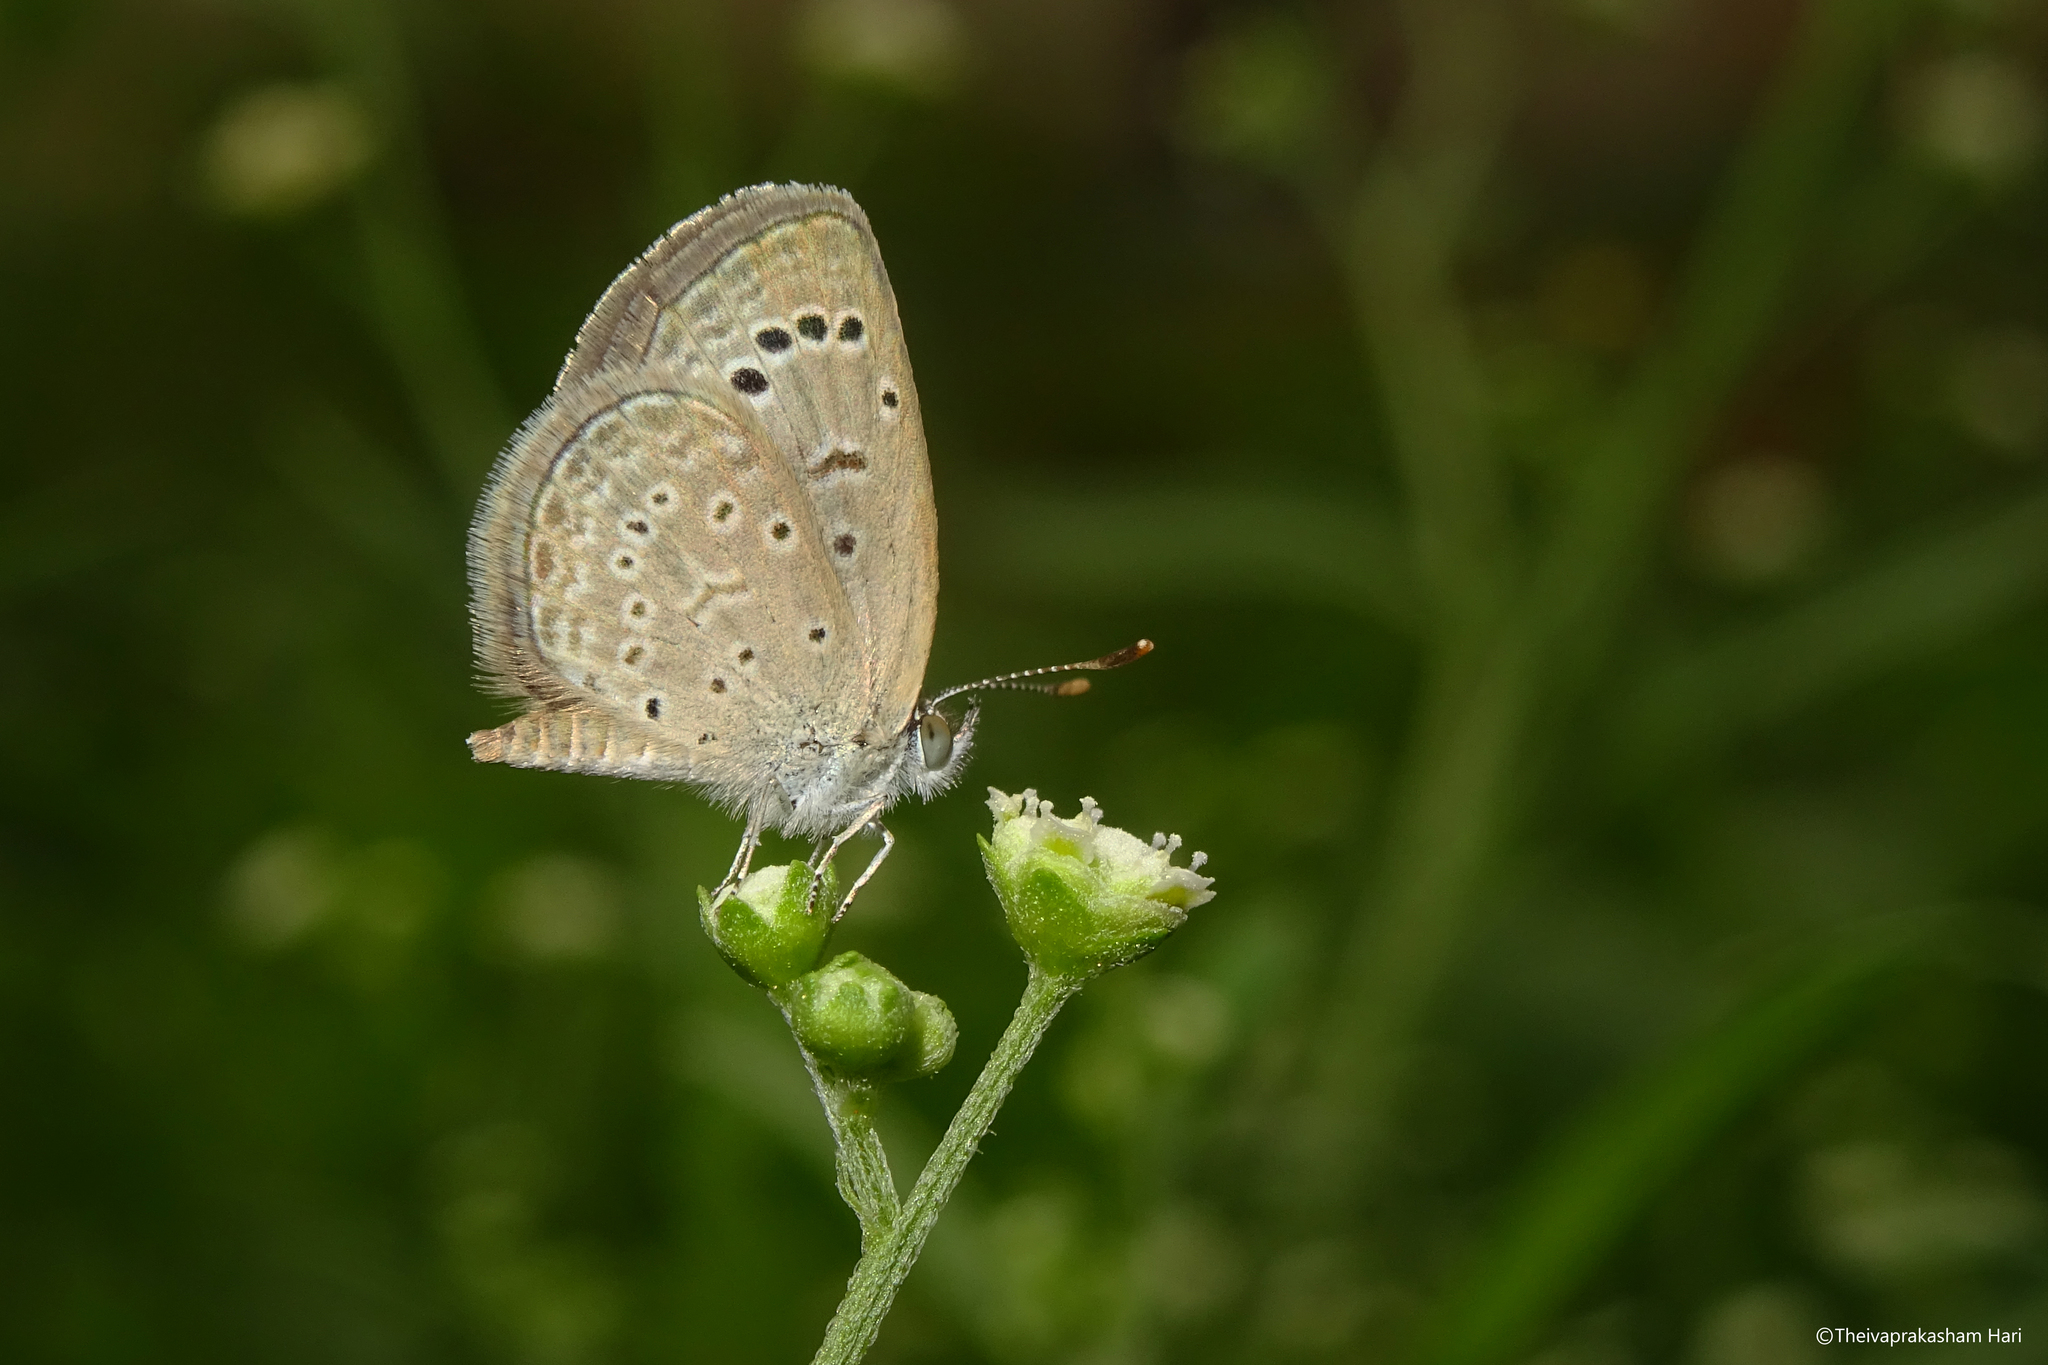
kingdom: Animalia
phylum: Arthropoda
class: Insecta
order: Lepidoptera
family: Lycaenidae
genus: Zizeeria
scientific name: Zizeeria karsandra
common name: Dark grass blue
